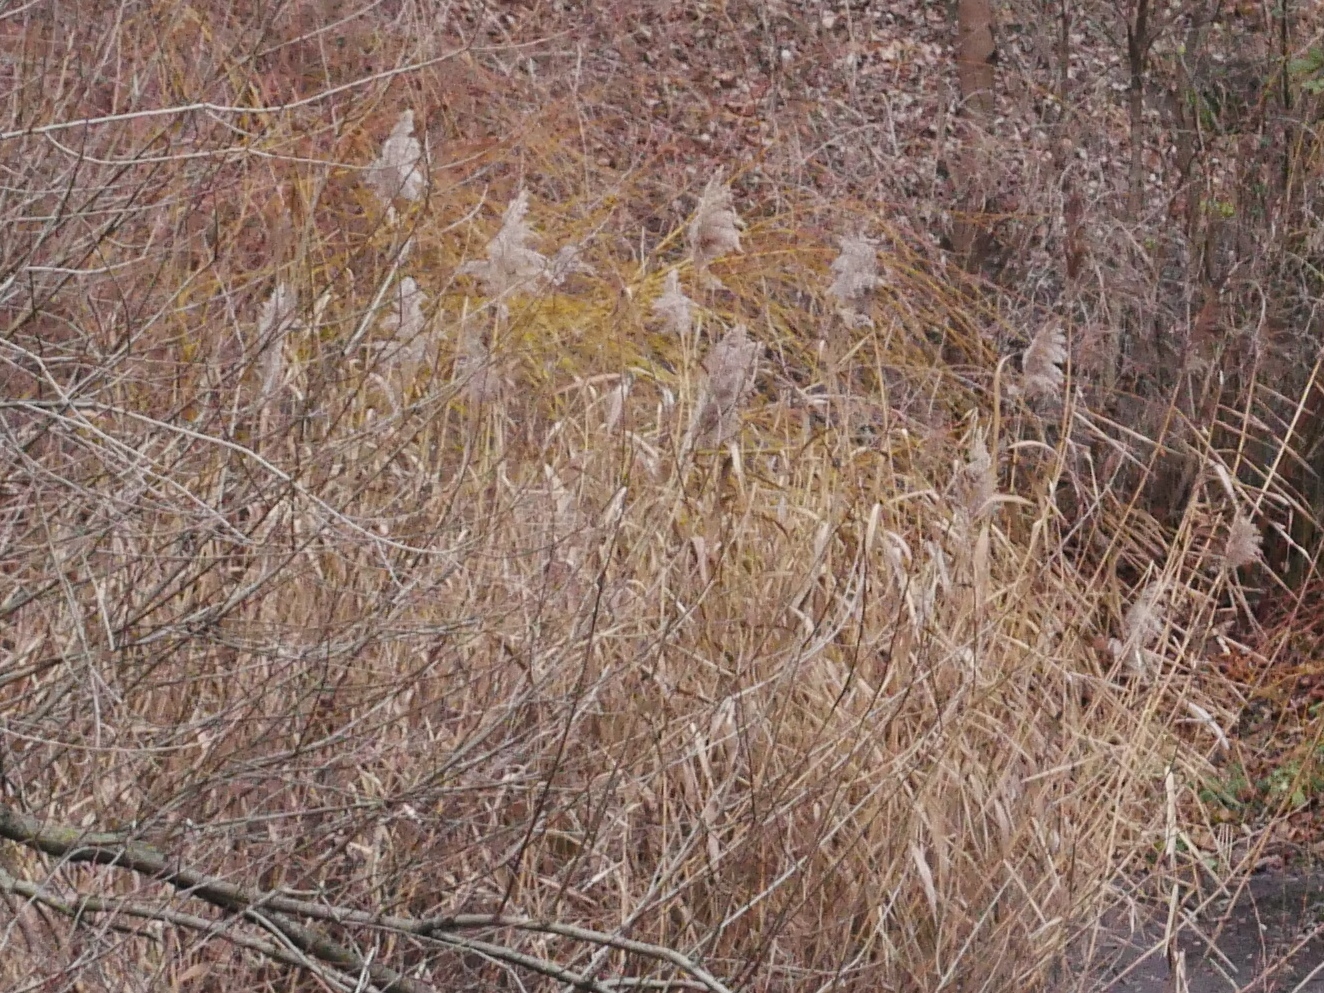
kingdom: Plantae
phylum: Tracheophyta
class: Liliopsida
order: Poales
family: Poaceae
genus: Phragmites
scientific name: Phragmites australis
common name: Common reed
